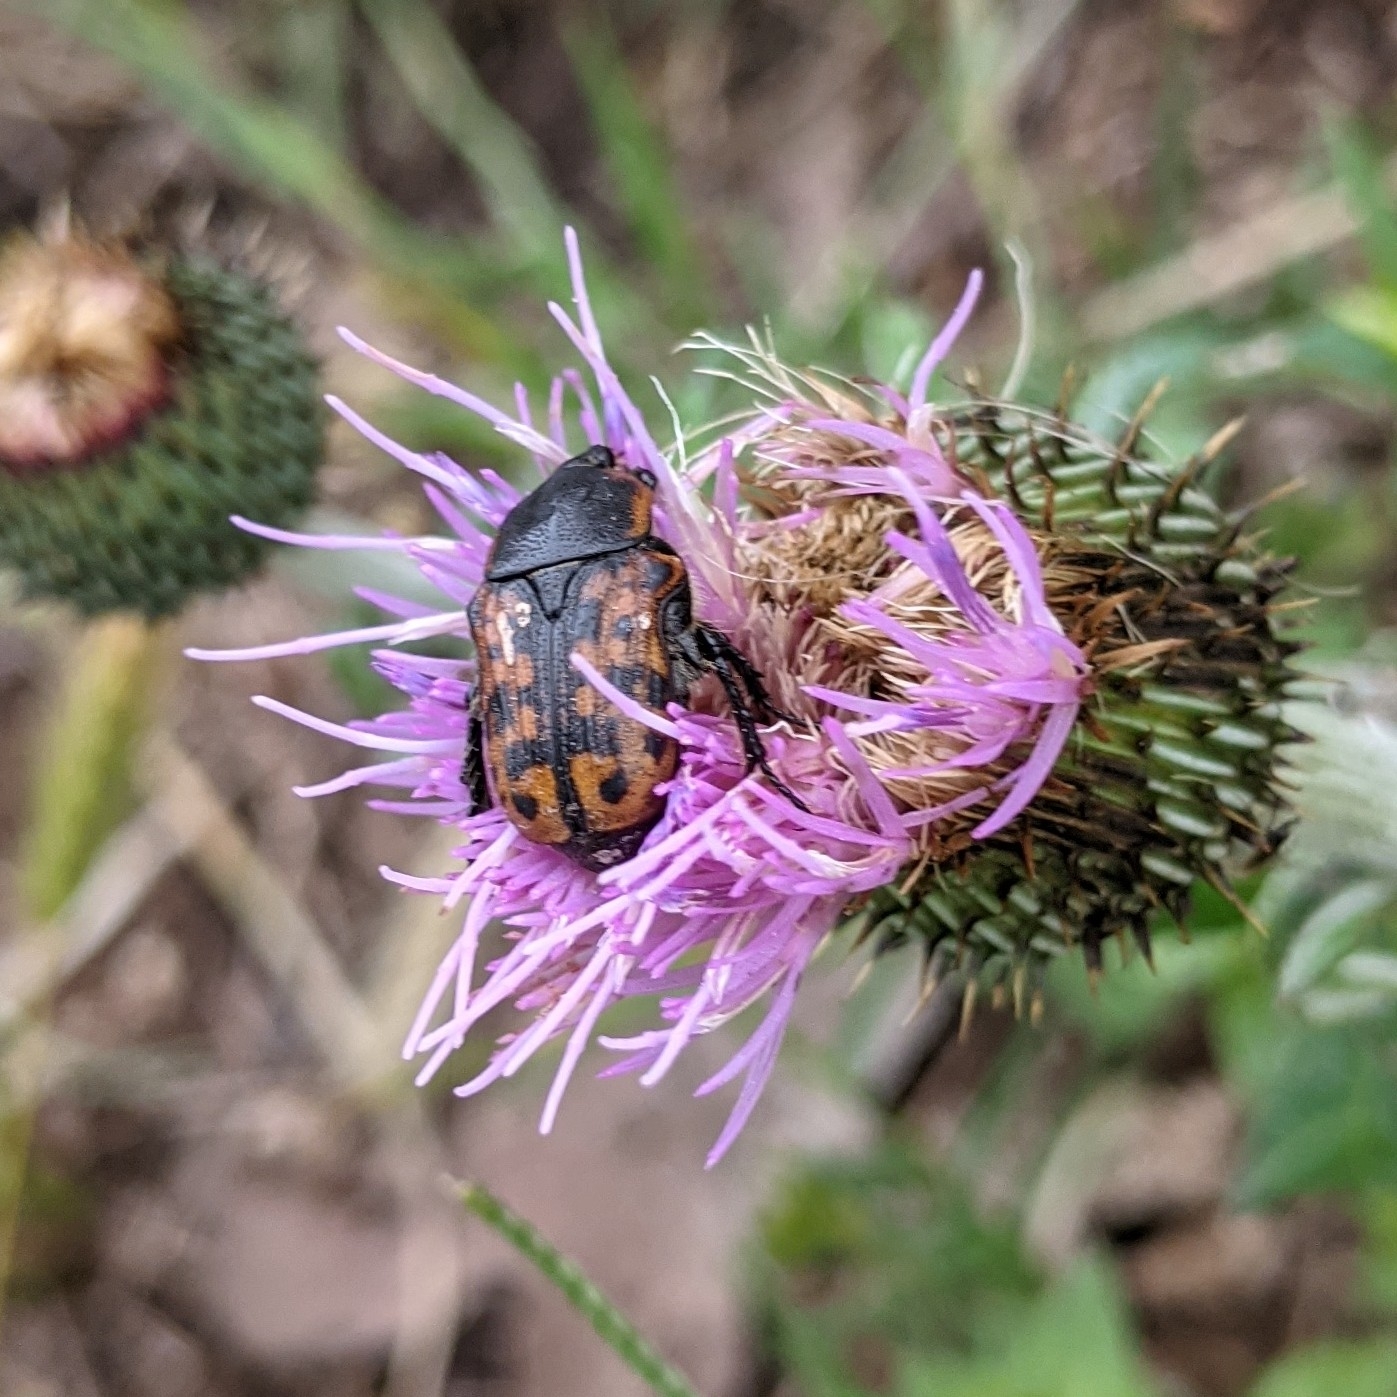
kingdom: Animalia
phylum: Arthropoda
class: Insecta
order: Coleoptera
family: Scarabaeidae
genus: Euphoria
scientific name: Euphoria kernii
